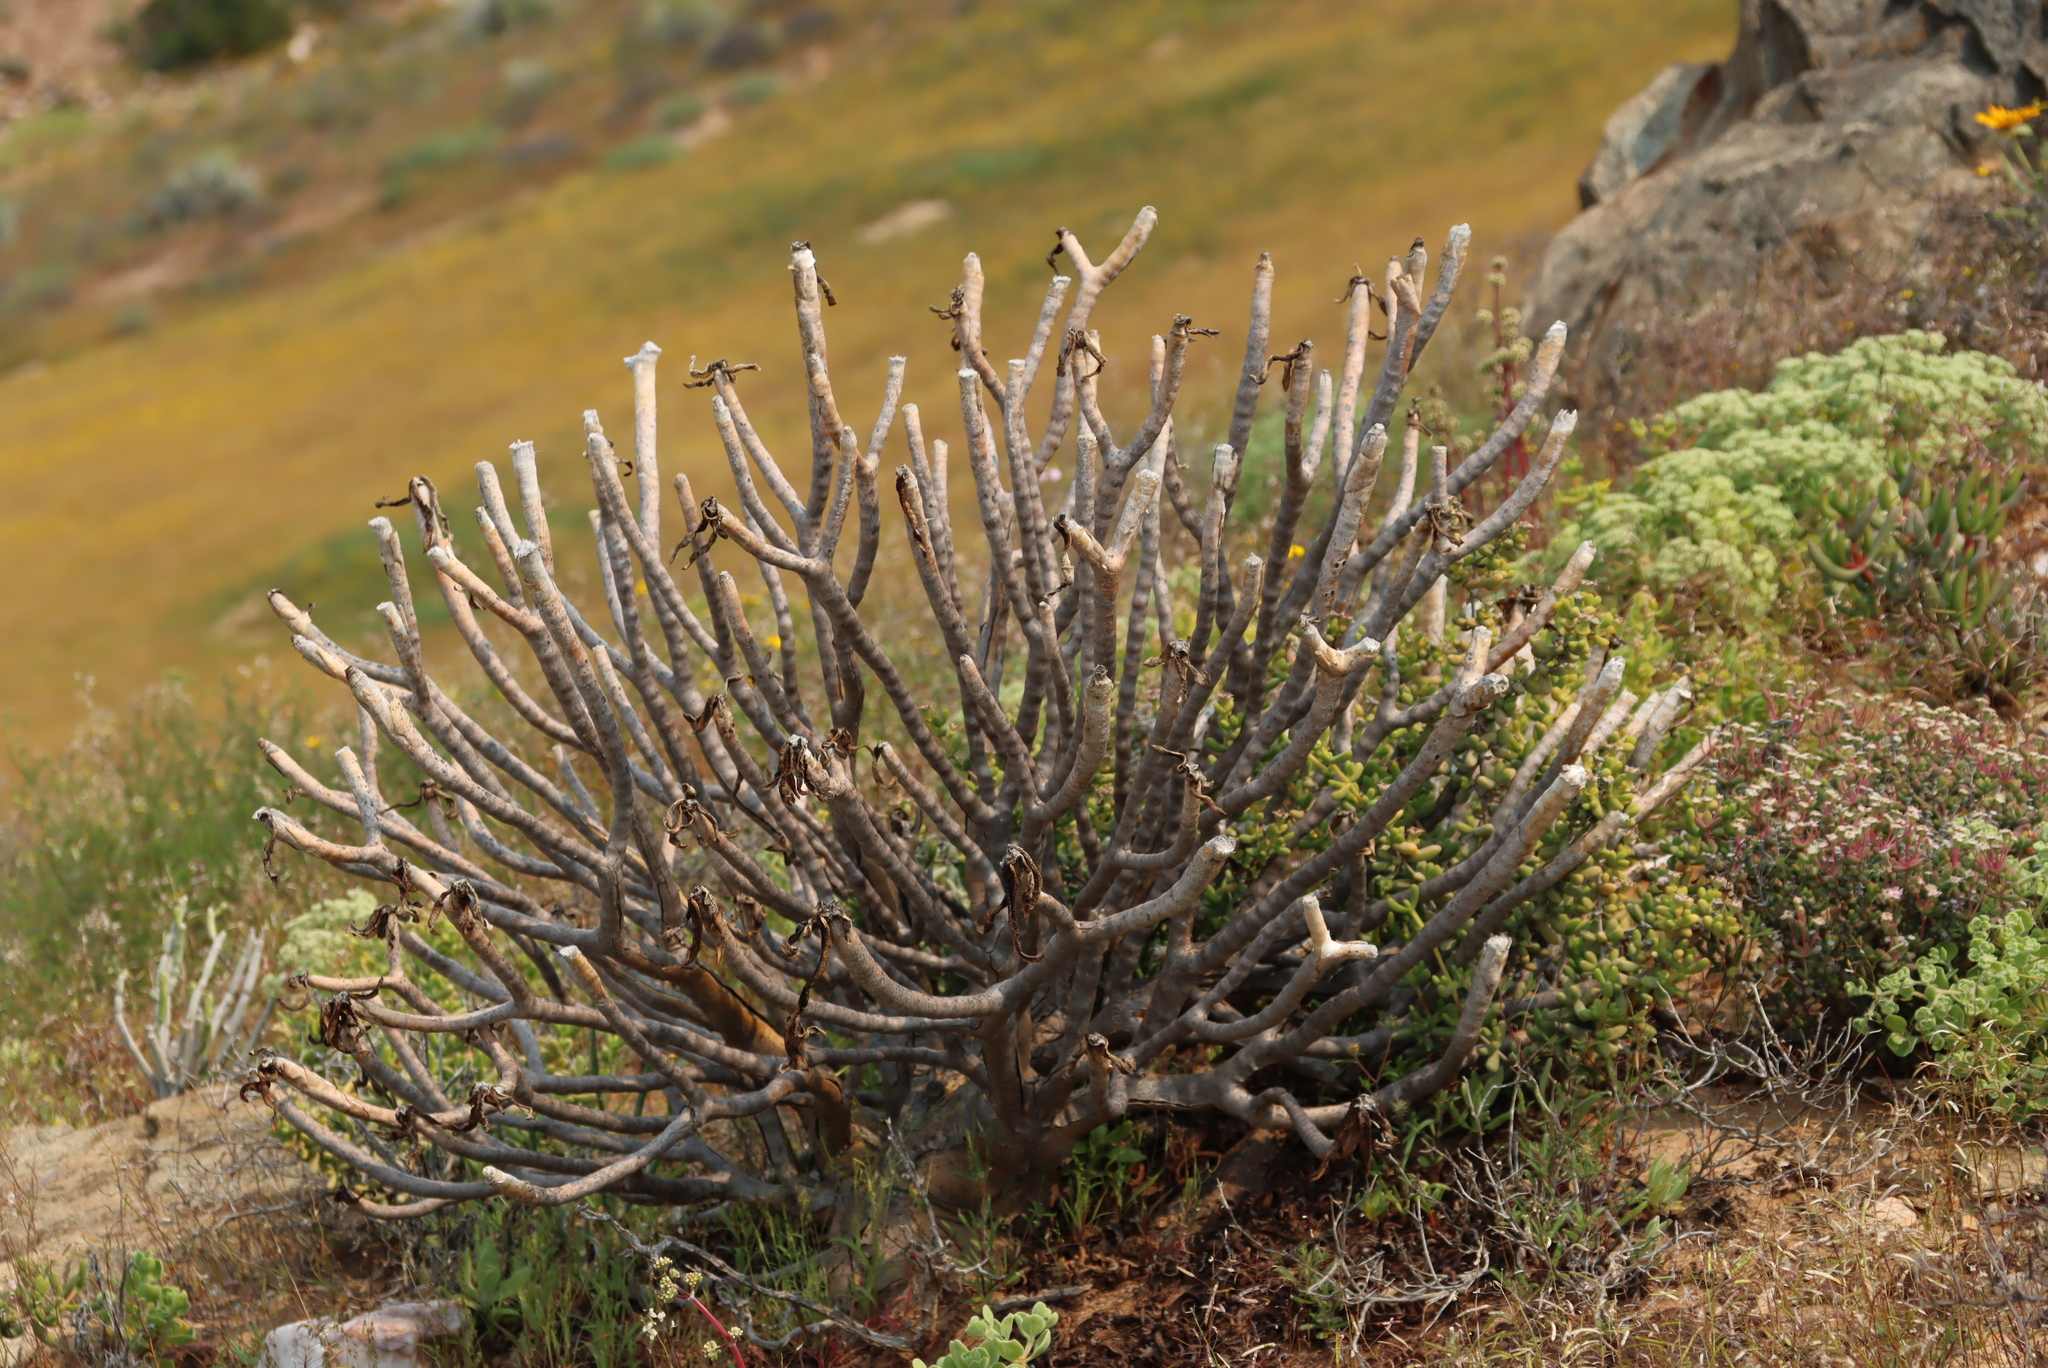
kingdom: Plantae
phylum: Tracheophyta
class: Liliopsida
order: Asparagales
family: Asphodelaceae
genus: Aloidendron
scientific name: Aloidendron ramosissimum
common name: Bush quiver tree
